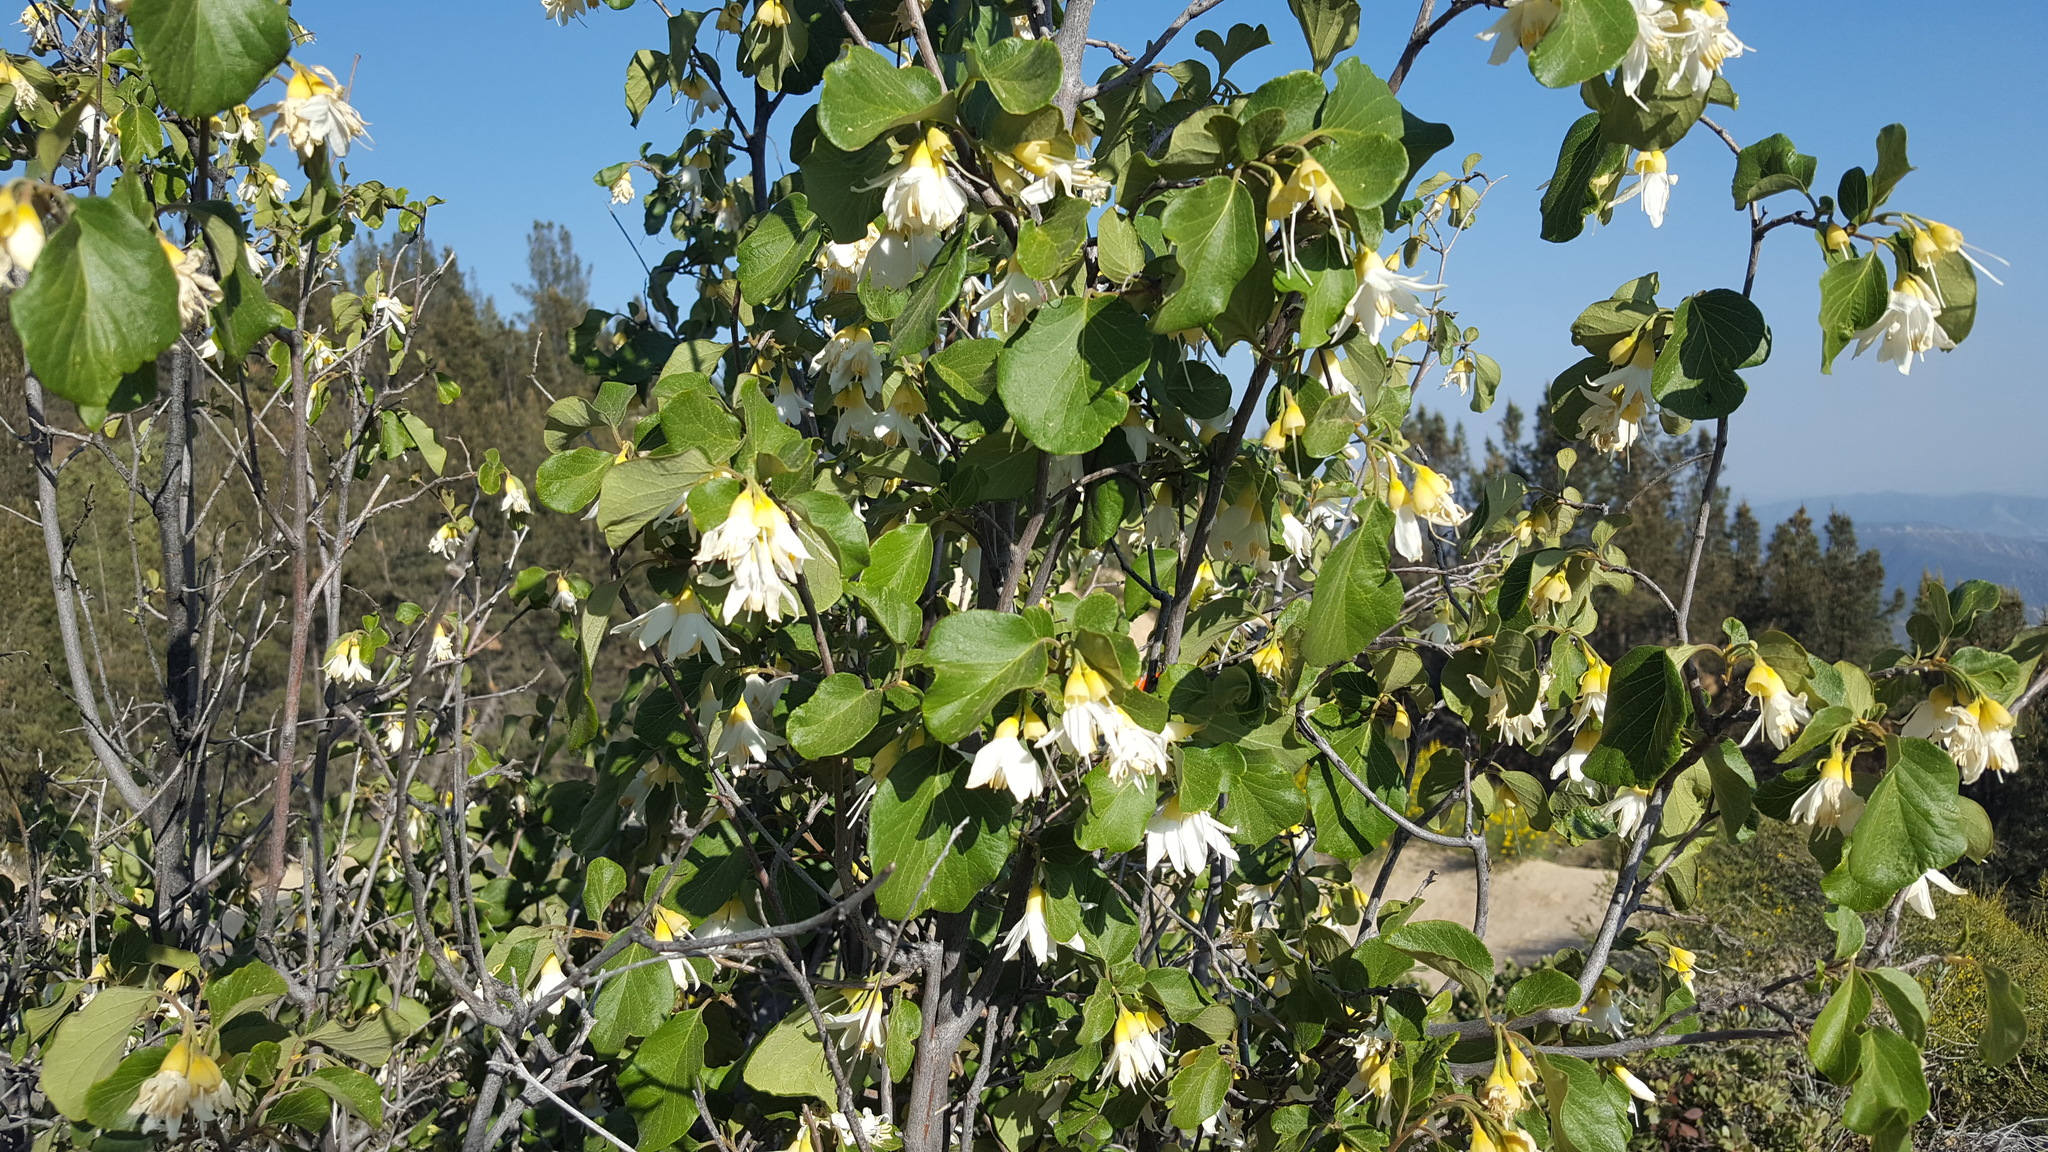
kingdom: Plantae
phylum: Tracheophyta
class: Magnoliopsida
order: Ericales
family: Styracaceae
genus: Styrax
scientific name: Styrax redivivus
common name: California styrax
